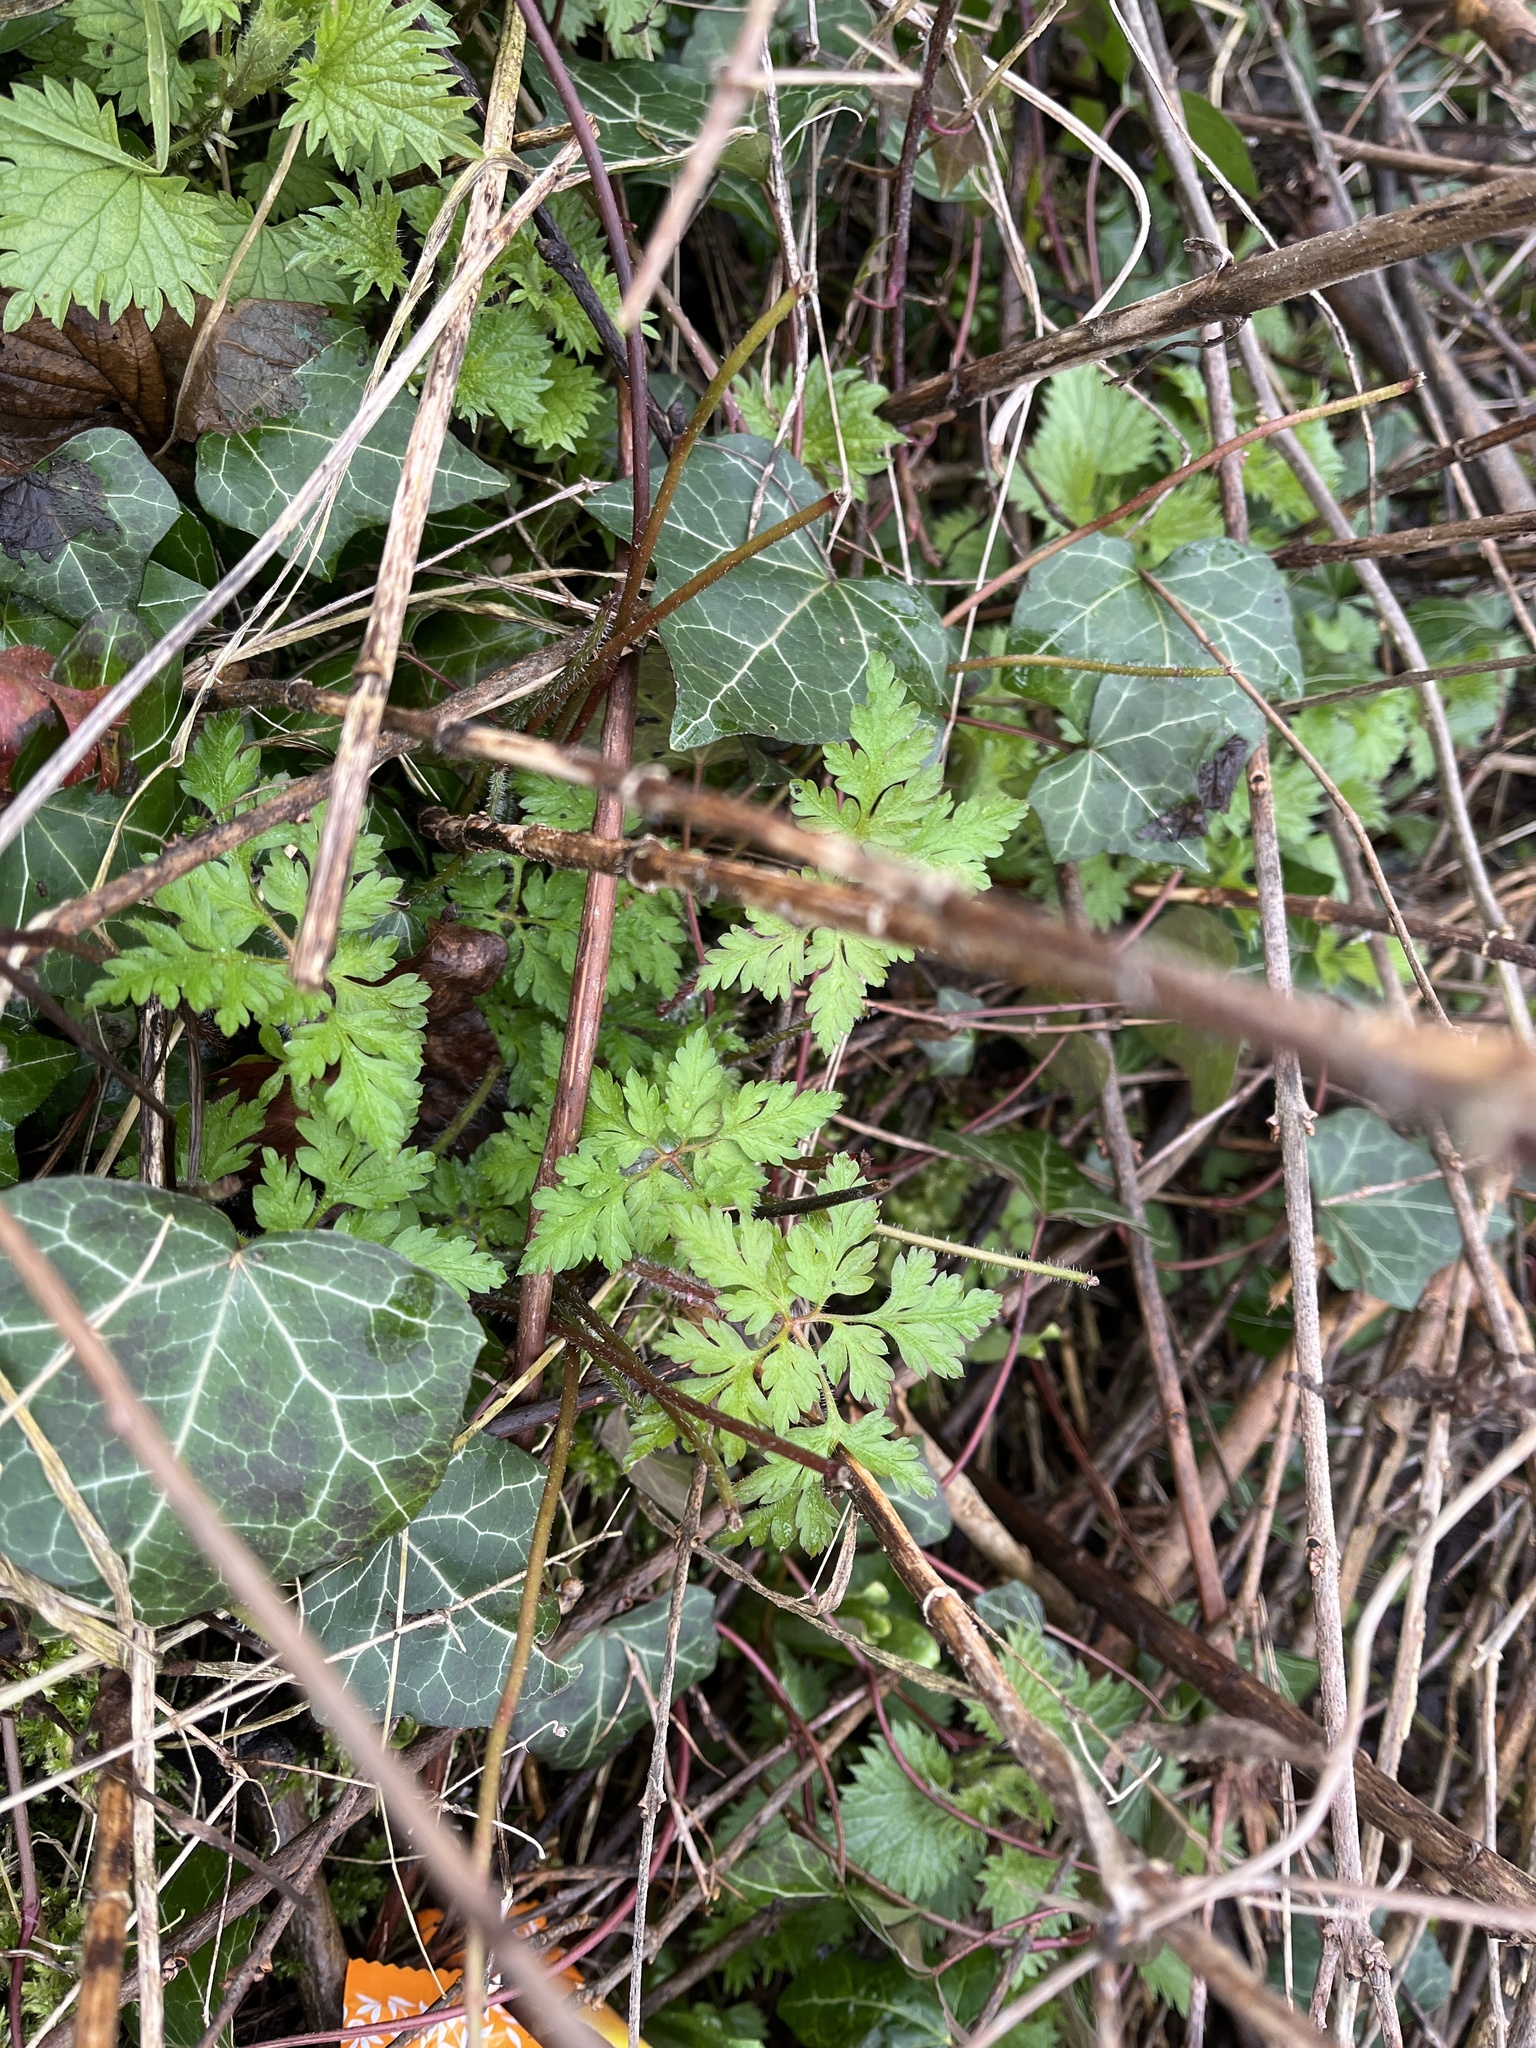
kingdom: Plantae
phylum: Tracheophyta
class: Magnoliopsida
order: Geraniales
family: Geraniaceae
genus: Geranium
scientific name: Geranium robertianum
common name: Herb-robert
